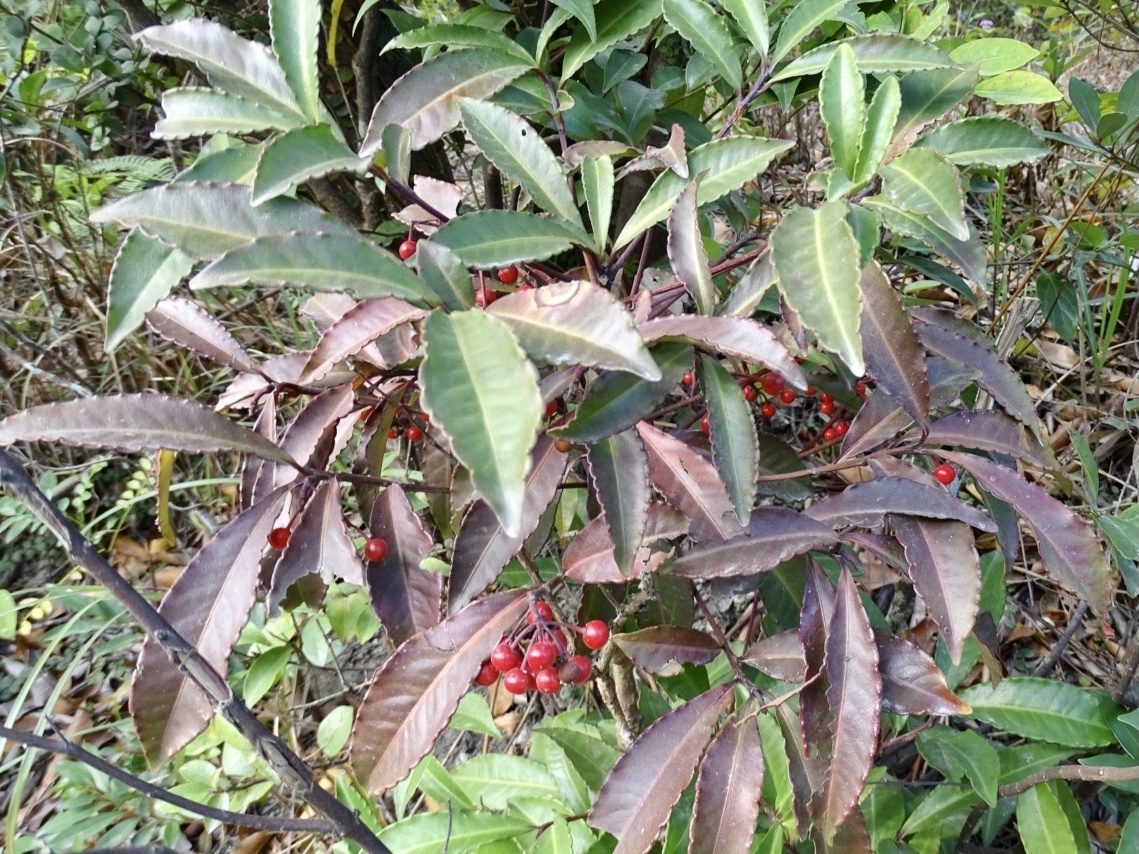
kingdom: Plantae
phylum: Tracheophyta
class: Magnoliopsida
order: Ericales
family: Primulaceae
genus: Ardisia
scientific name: Ardisia crenata
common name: Hen's eyes
